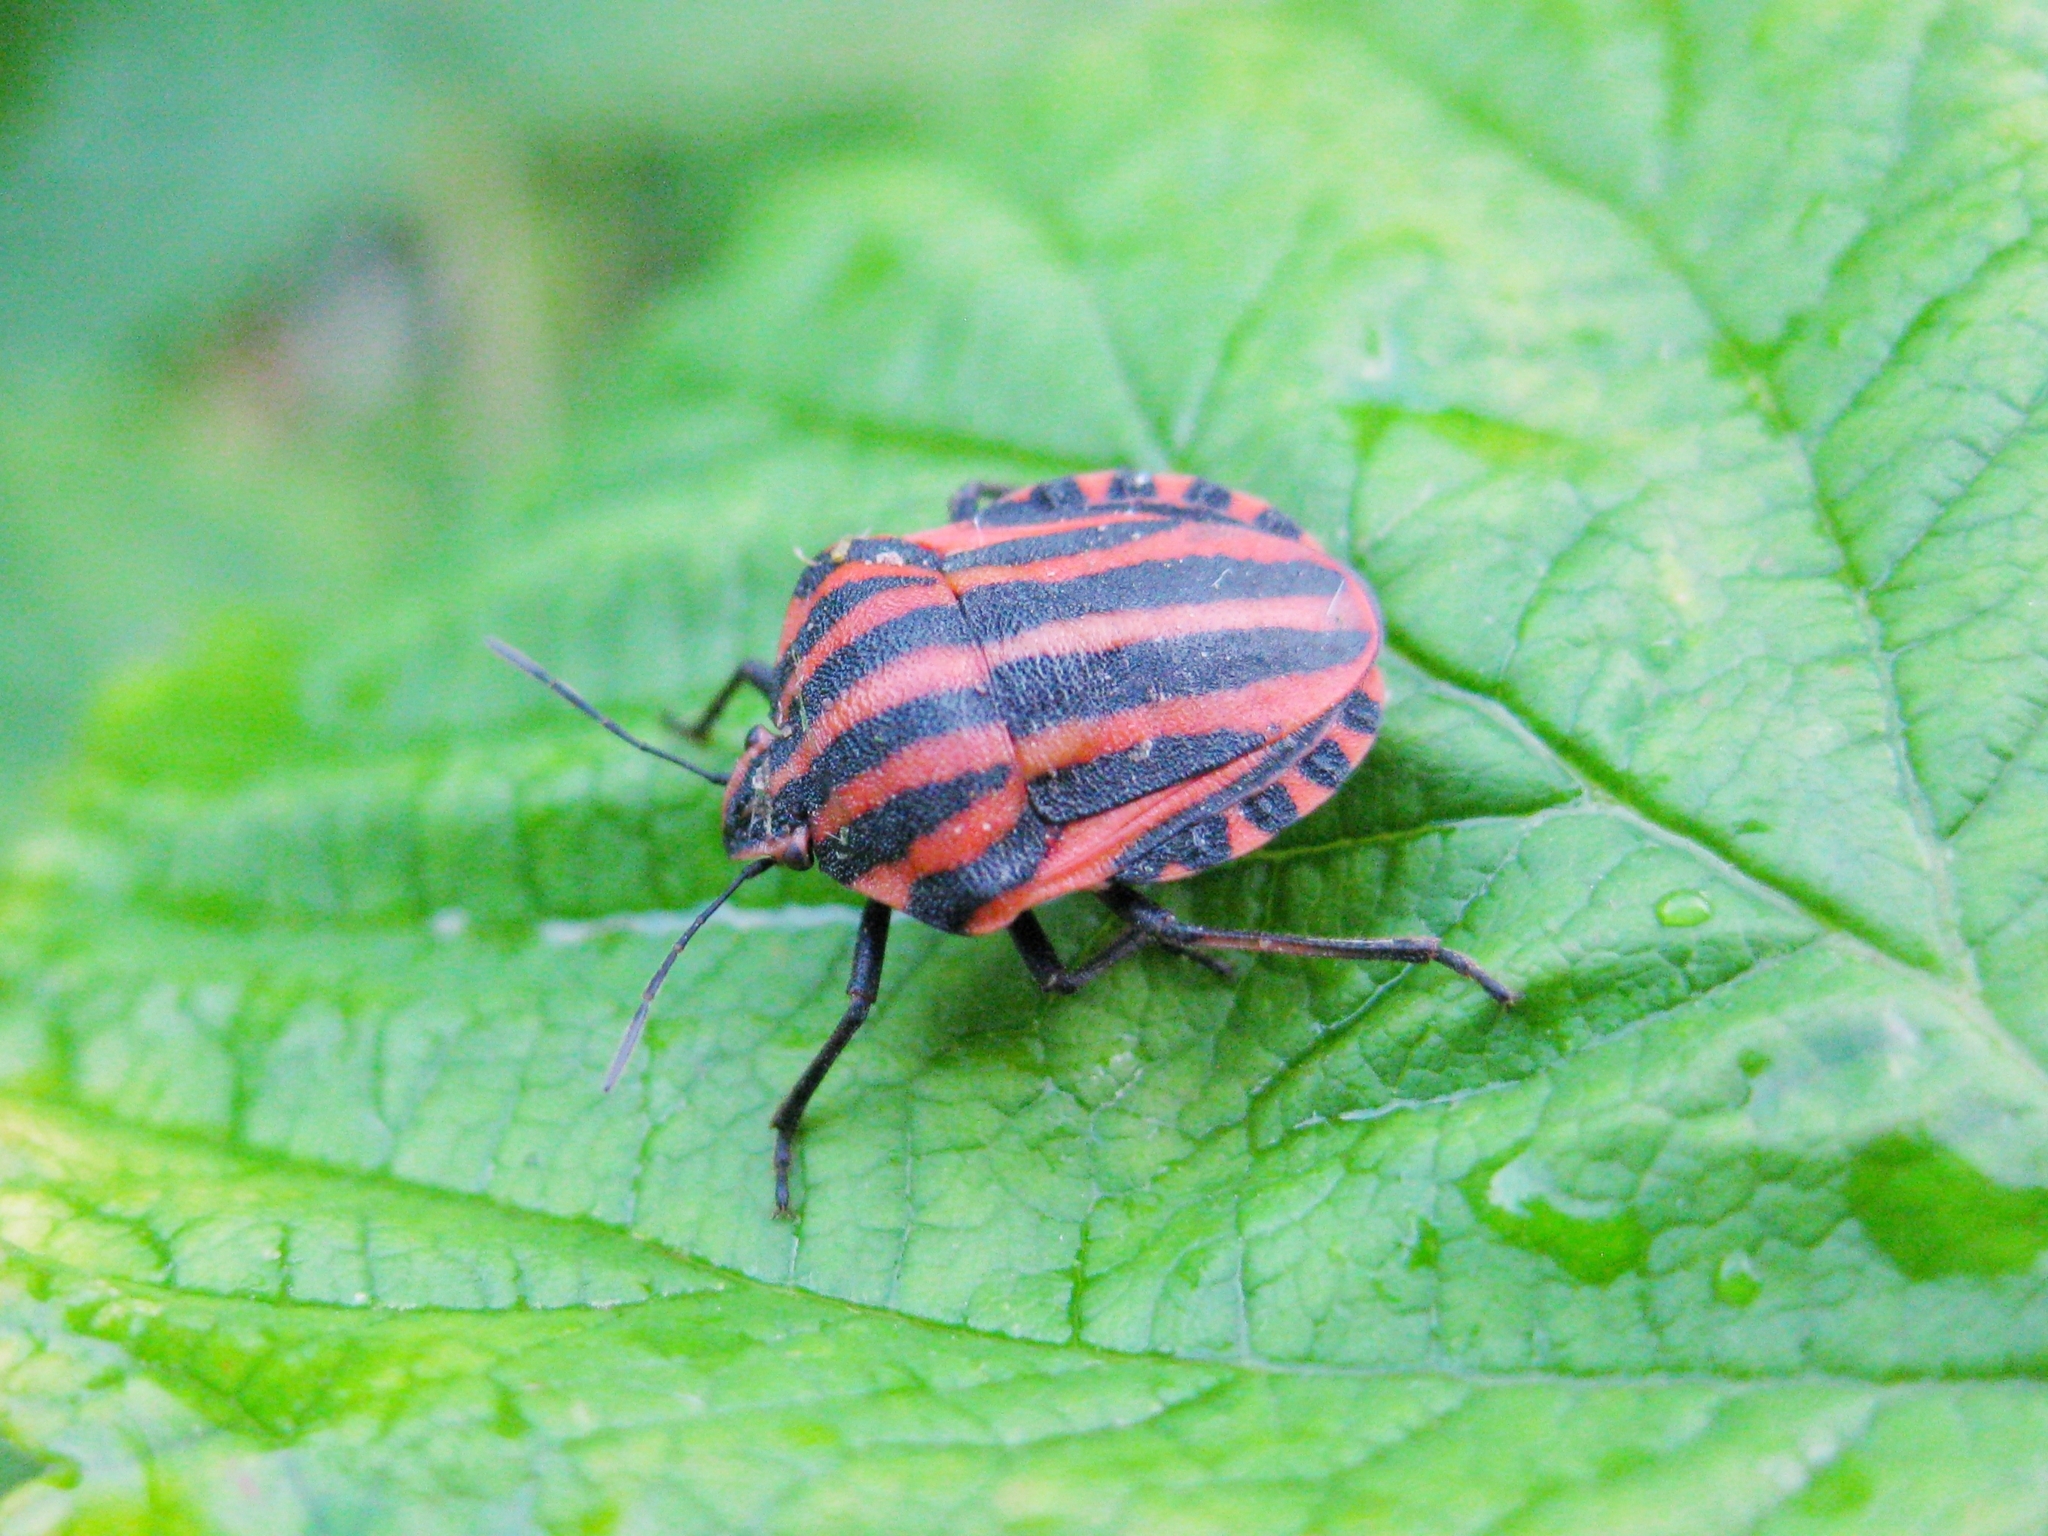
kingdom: Animalia
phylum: Arthropoda
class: Insecta
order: Hemiptera
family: Pentatomidae
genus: Graphosoma
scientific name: Graphosoma italicum
